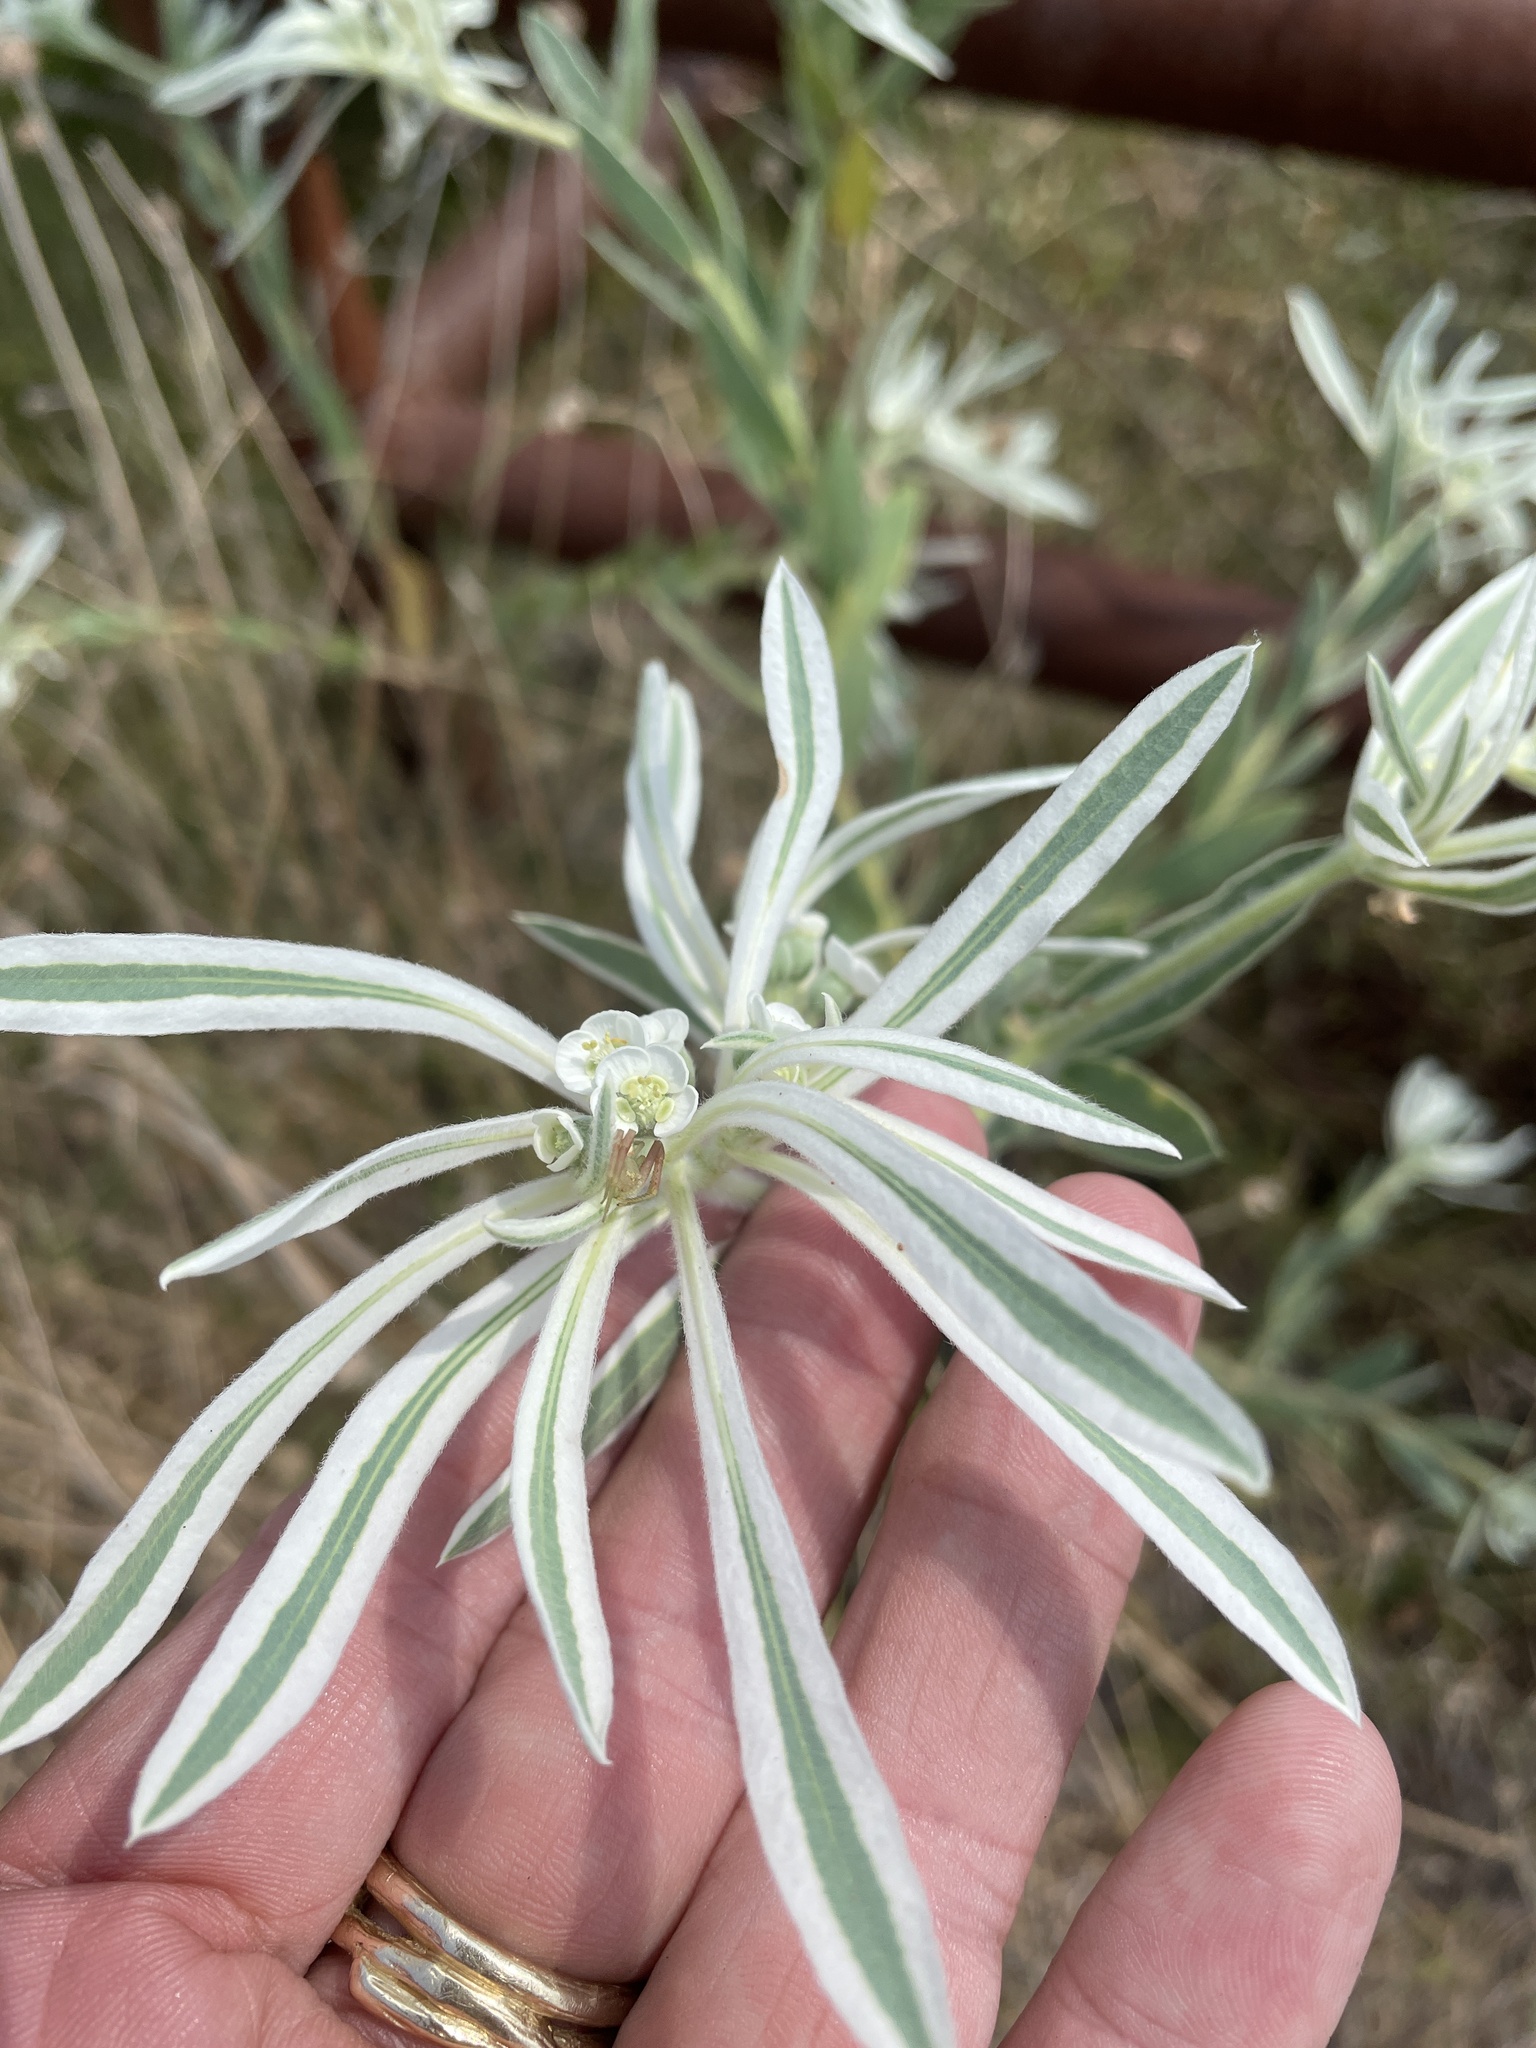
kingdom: Plantae
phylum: Tracheophyta
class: Magnoliopsida
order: Malpighiales
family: Euphorbiaceae
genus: Euphorbia
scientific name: Euphorbia bicolor
